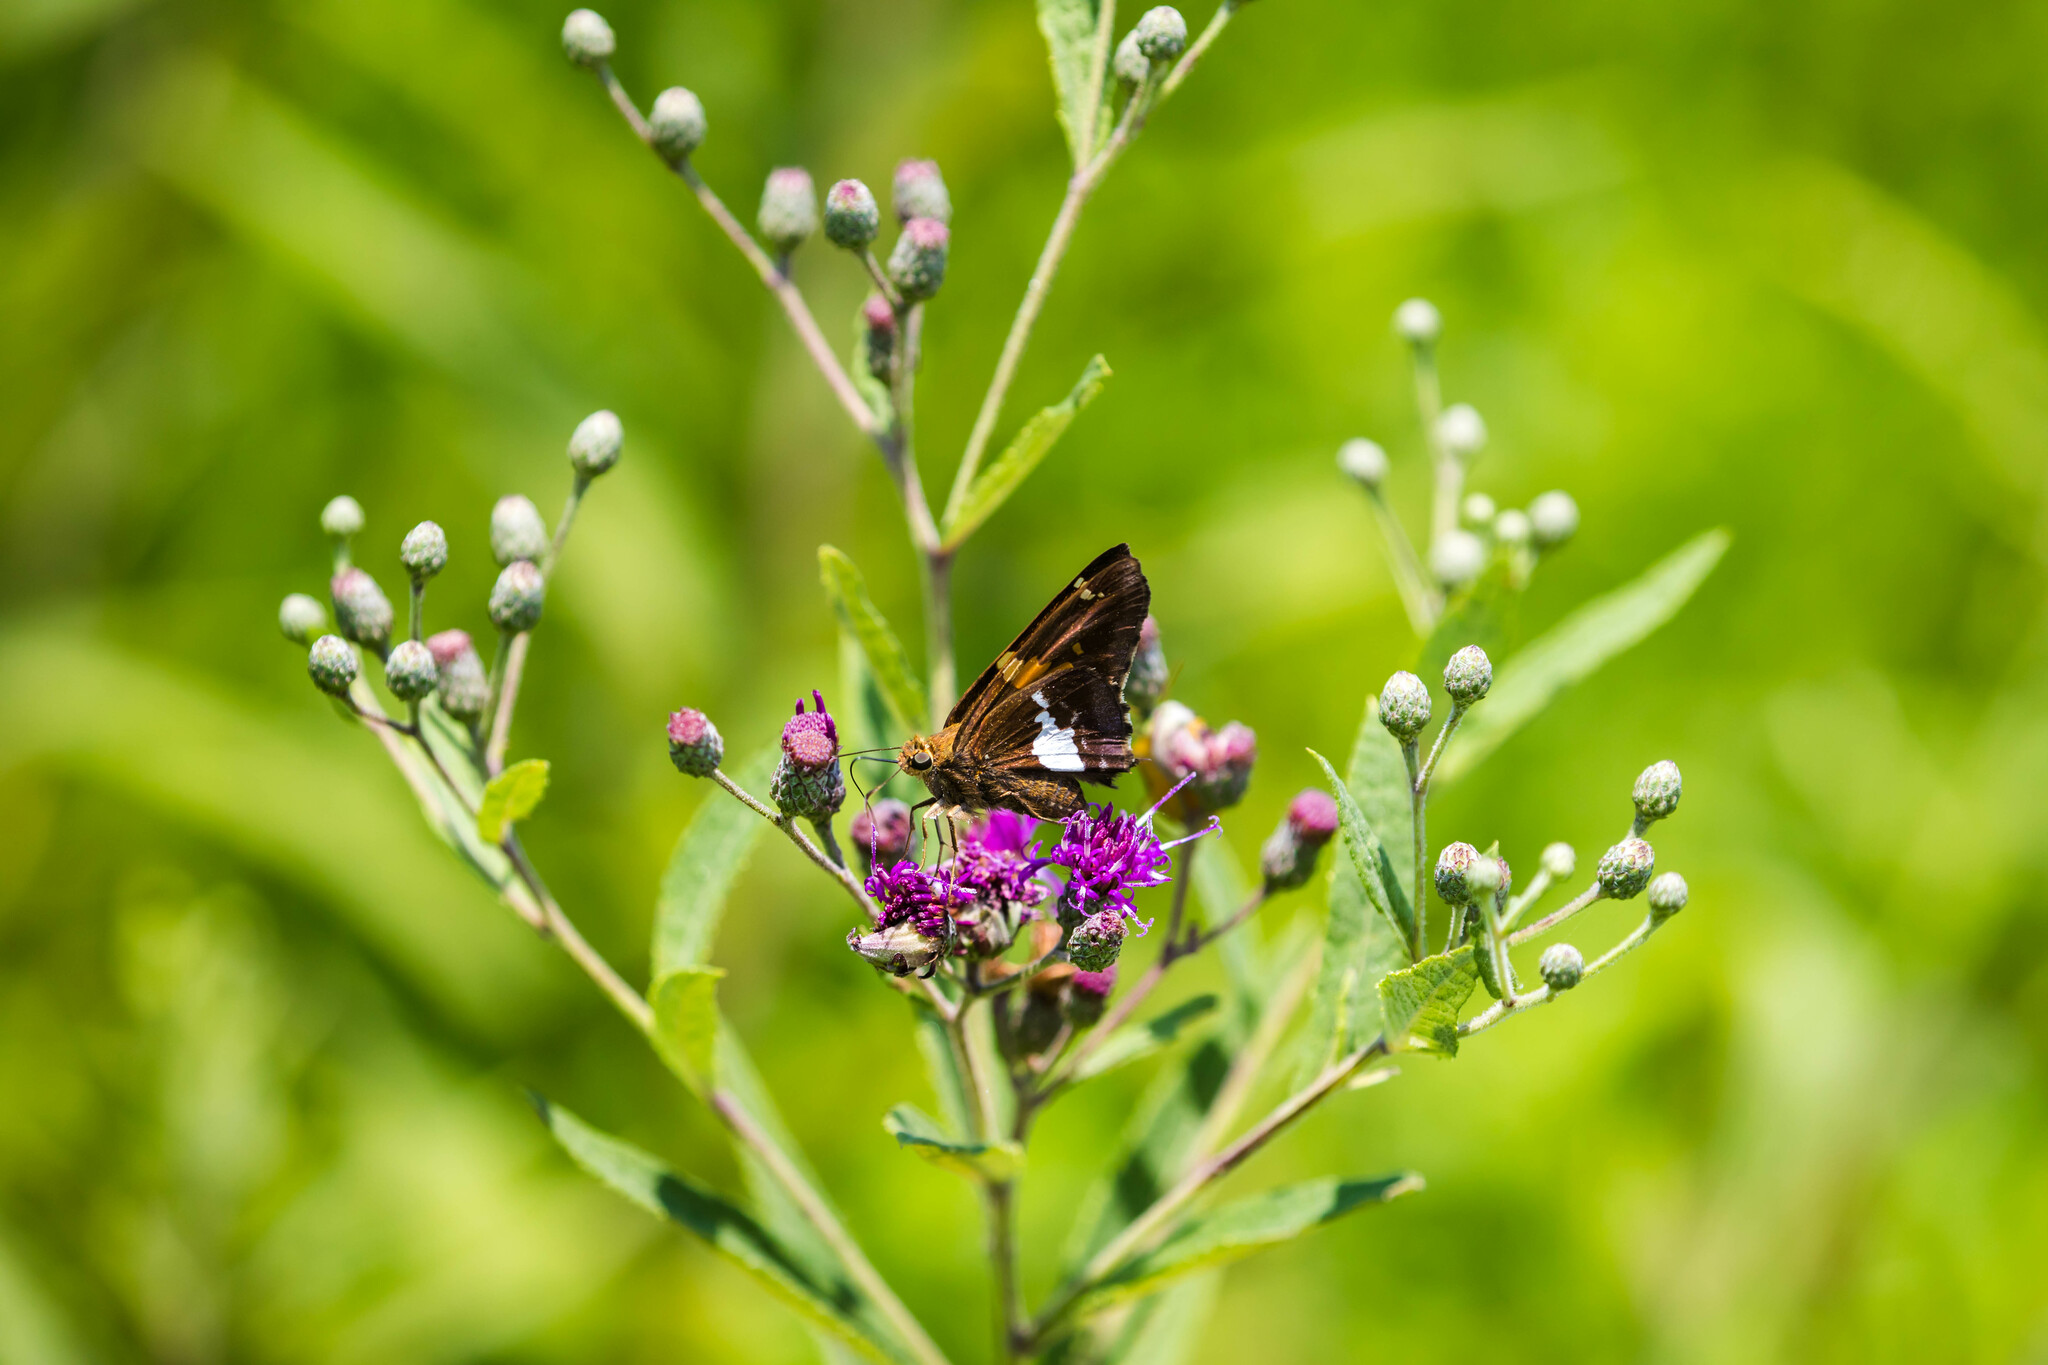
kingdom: Animalia
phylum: Arthropoda
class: Insecta
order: Lepidoptera
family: Hesperiidae
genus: Epargyreus
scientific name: Epargyreus clarus
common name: Silver-spotted skipper
